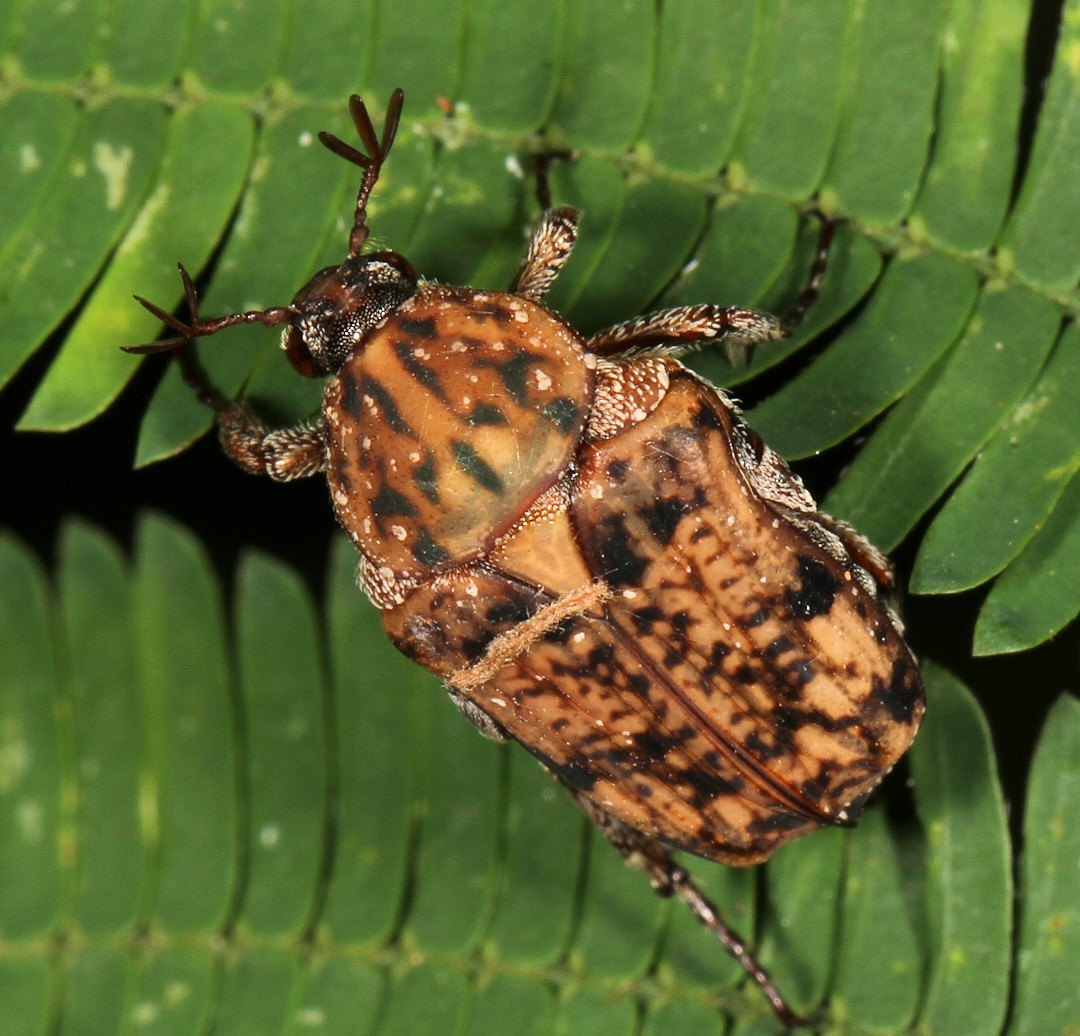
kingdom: Animalia
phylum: Arthropoda
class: Insecta
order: Coleoptera
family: Scarabaeidae
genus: Niphetophora
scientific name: Niphetophora carneola
